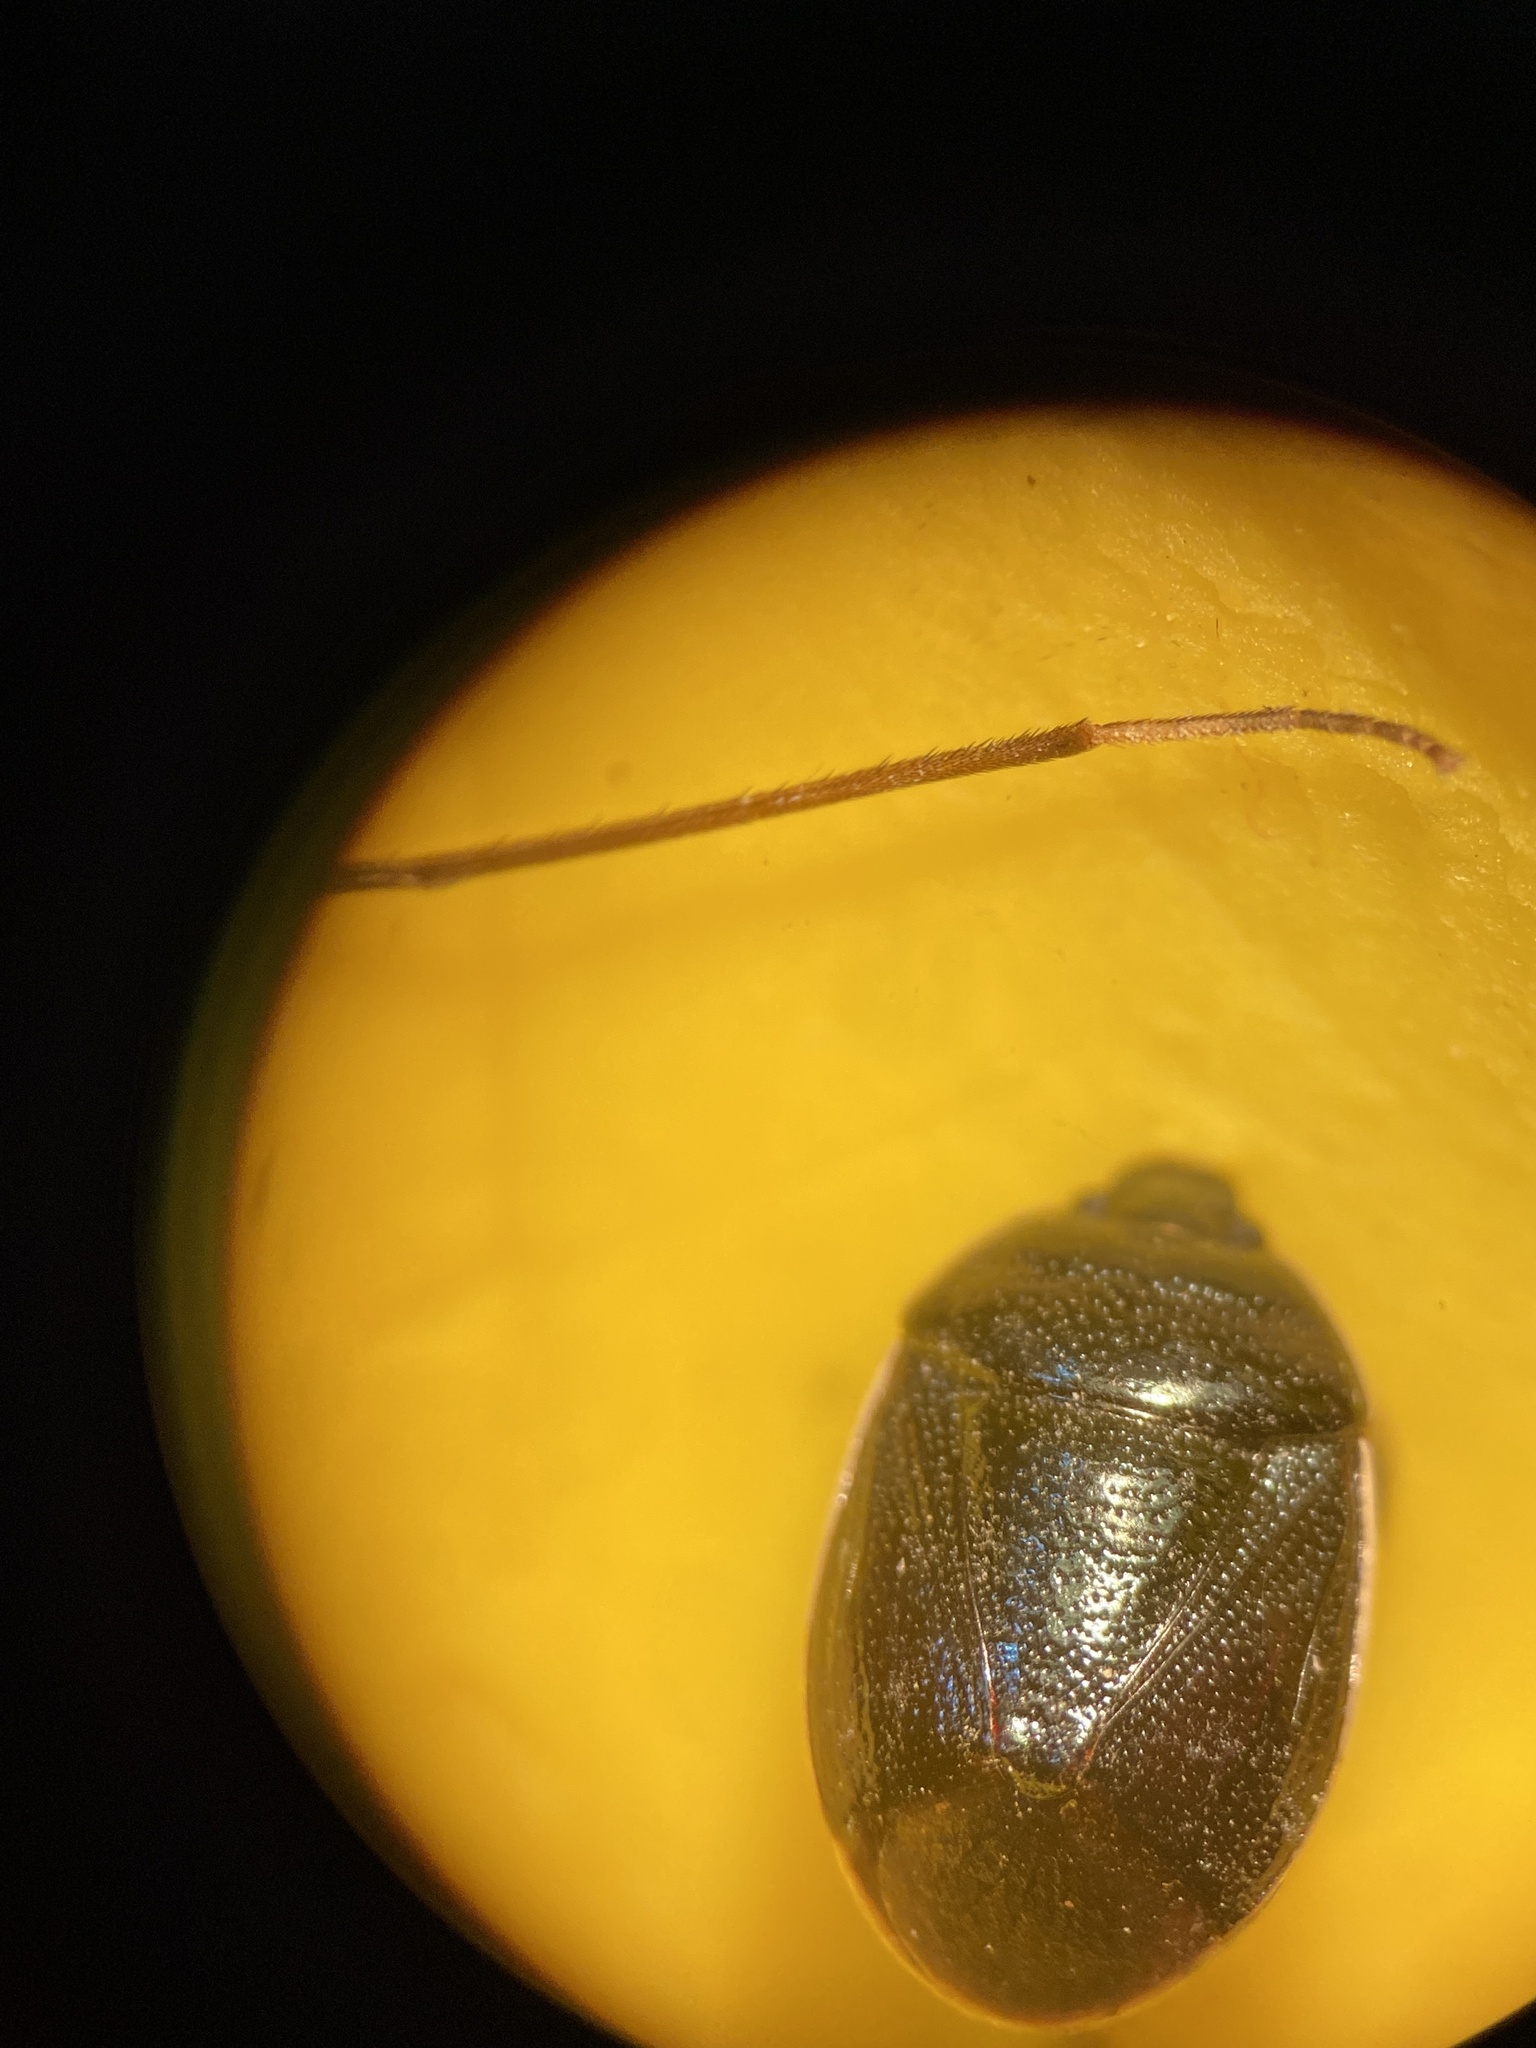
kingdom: Animalia
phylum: Arthropoda
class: Insecta
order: Hemiptera
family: Cydnidae
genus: Sehirus
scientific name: Sehirus cinctus
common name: White-margined burrower bug
